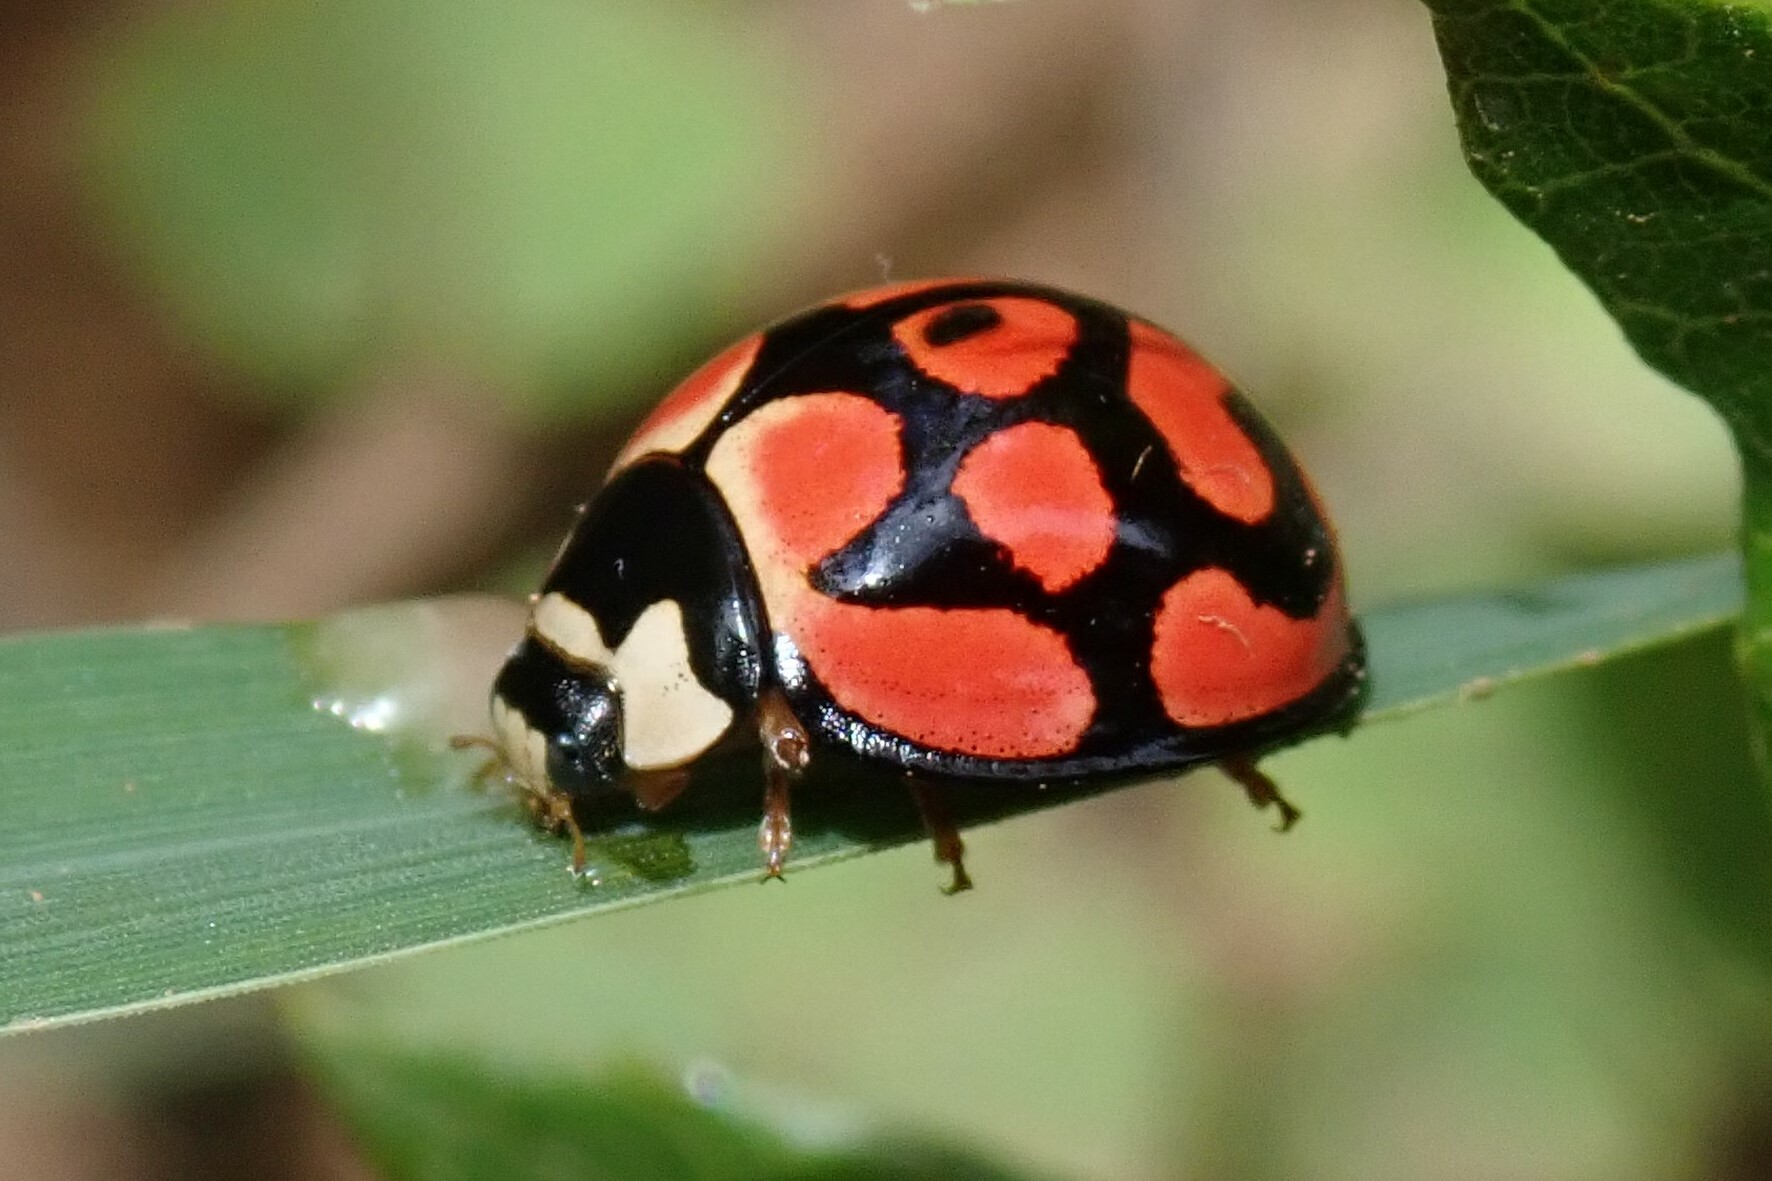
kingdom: Animalia
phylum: Arthropoda
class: Insecta
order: Coleoptera
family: Coccinellidae
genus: Cheilomenes
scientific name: Cheilomenes lunata
